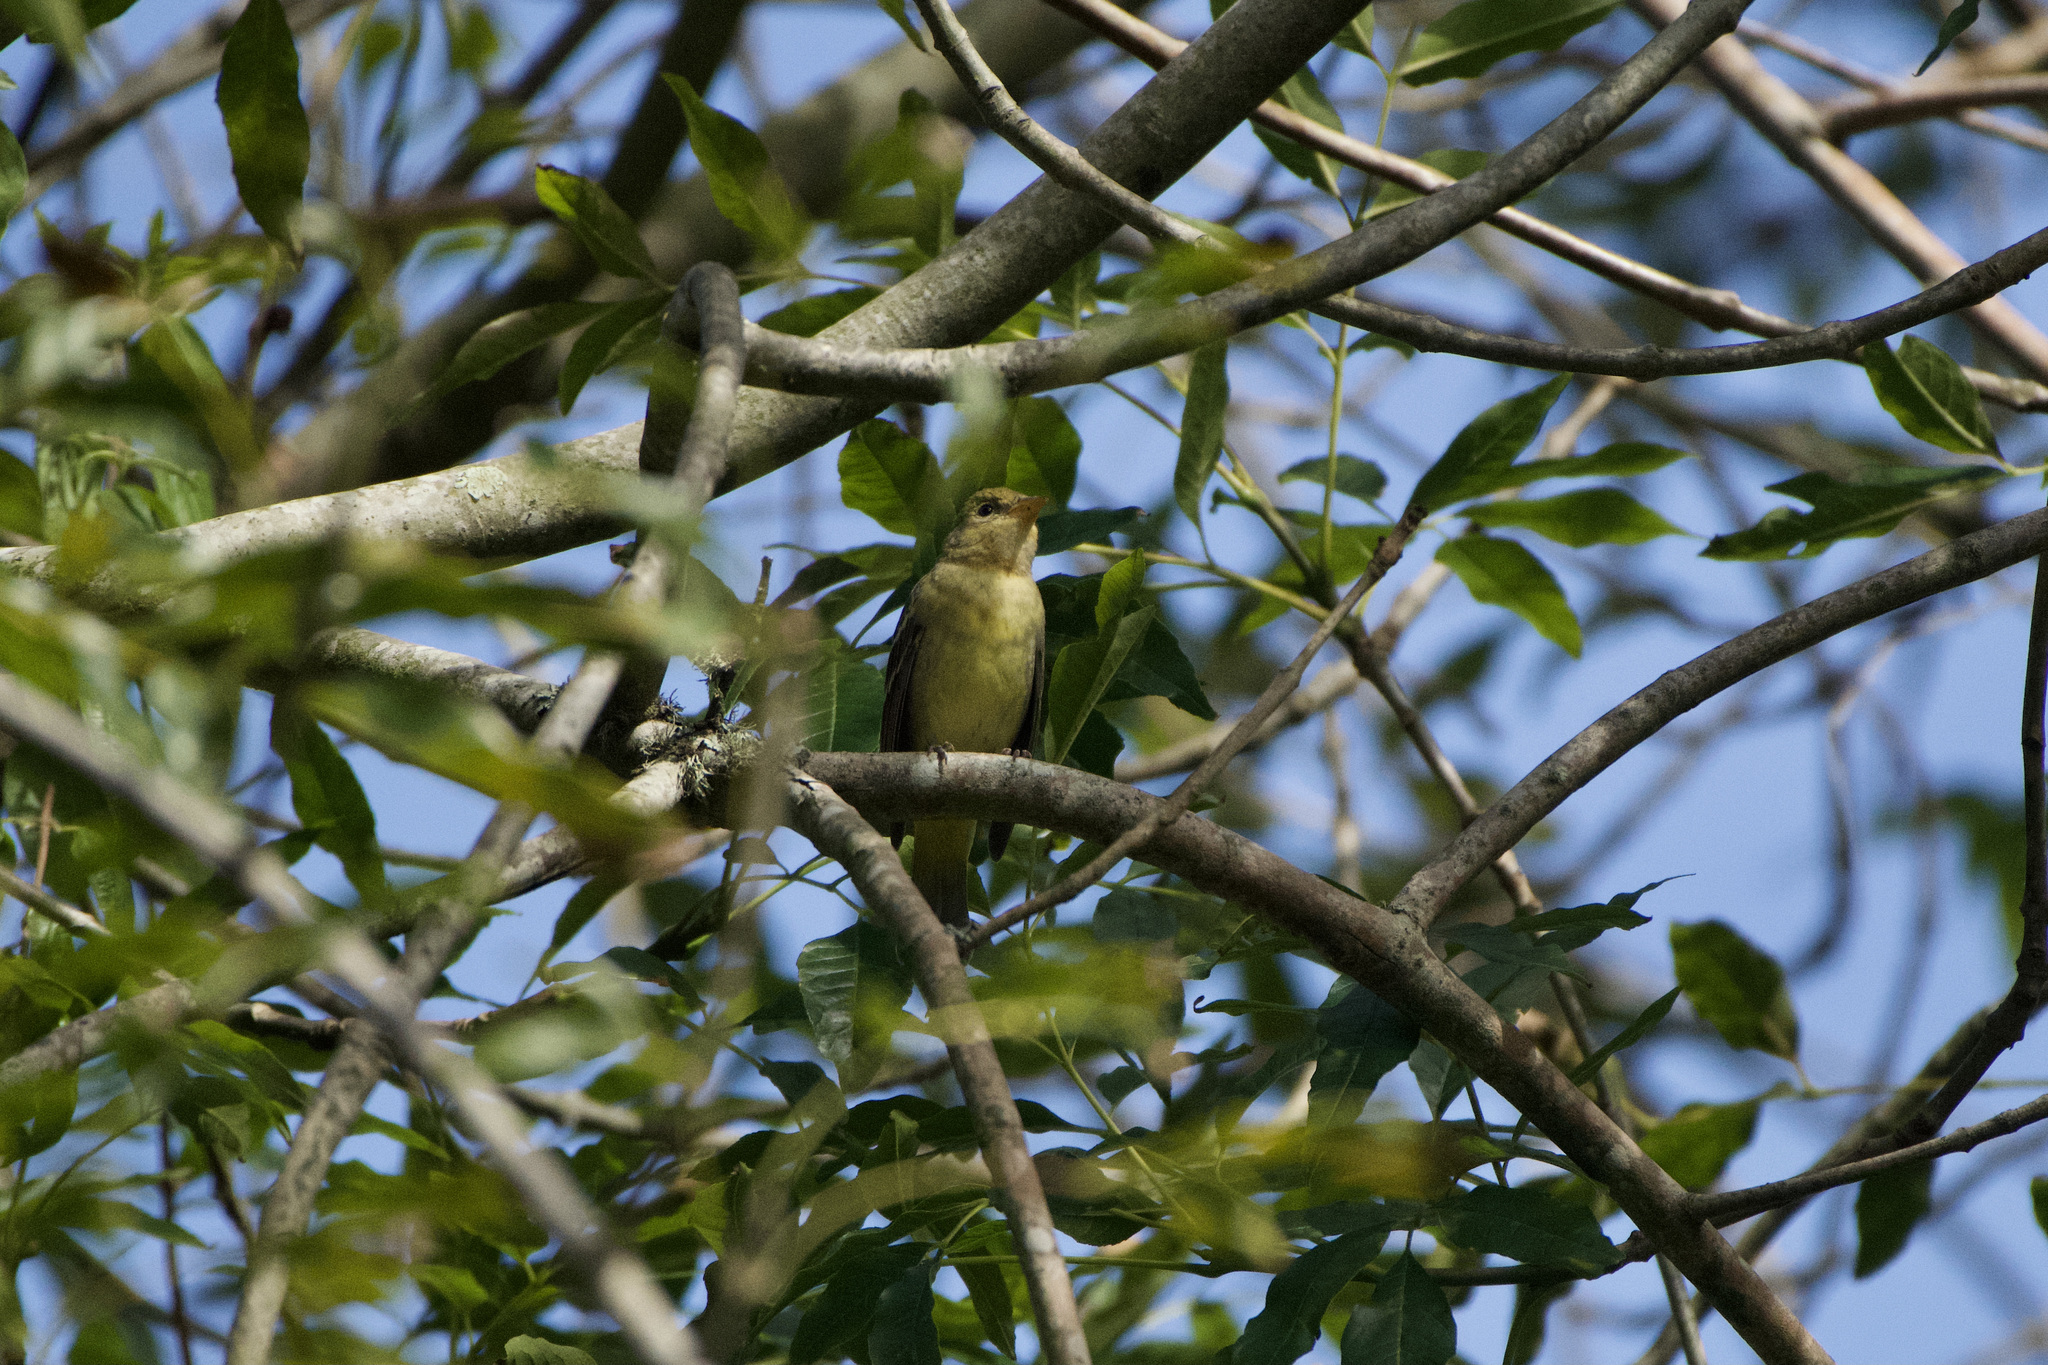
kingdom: Animalia
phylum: Chordata
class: Aves
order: Passeriformes
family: Cardinalidae
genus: Piranga
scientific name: Piranga ludoviciana
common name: Western tanager
